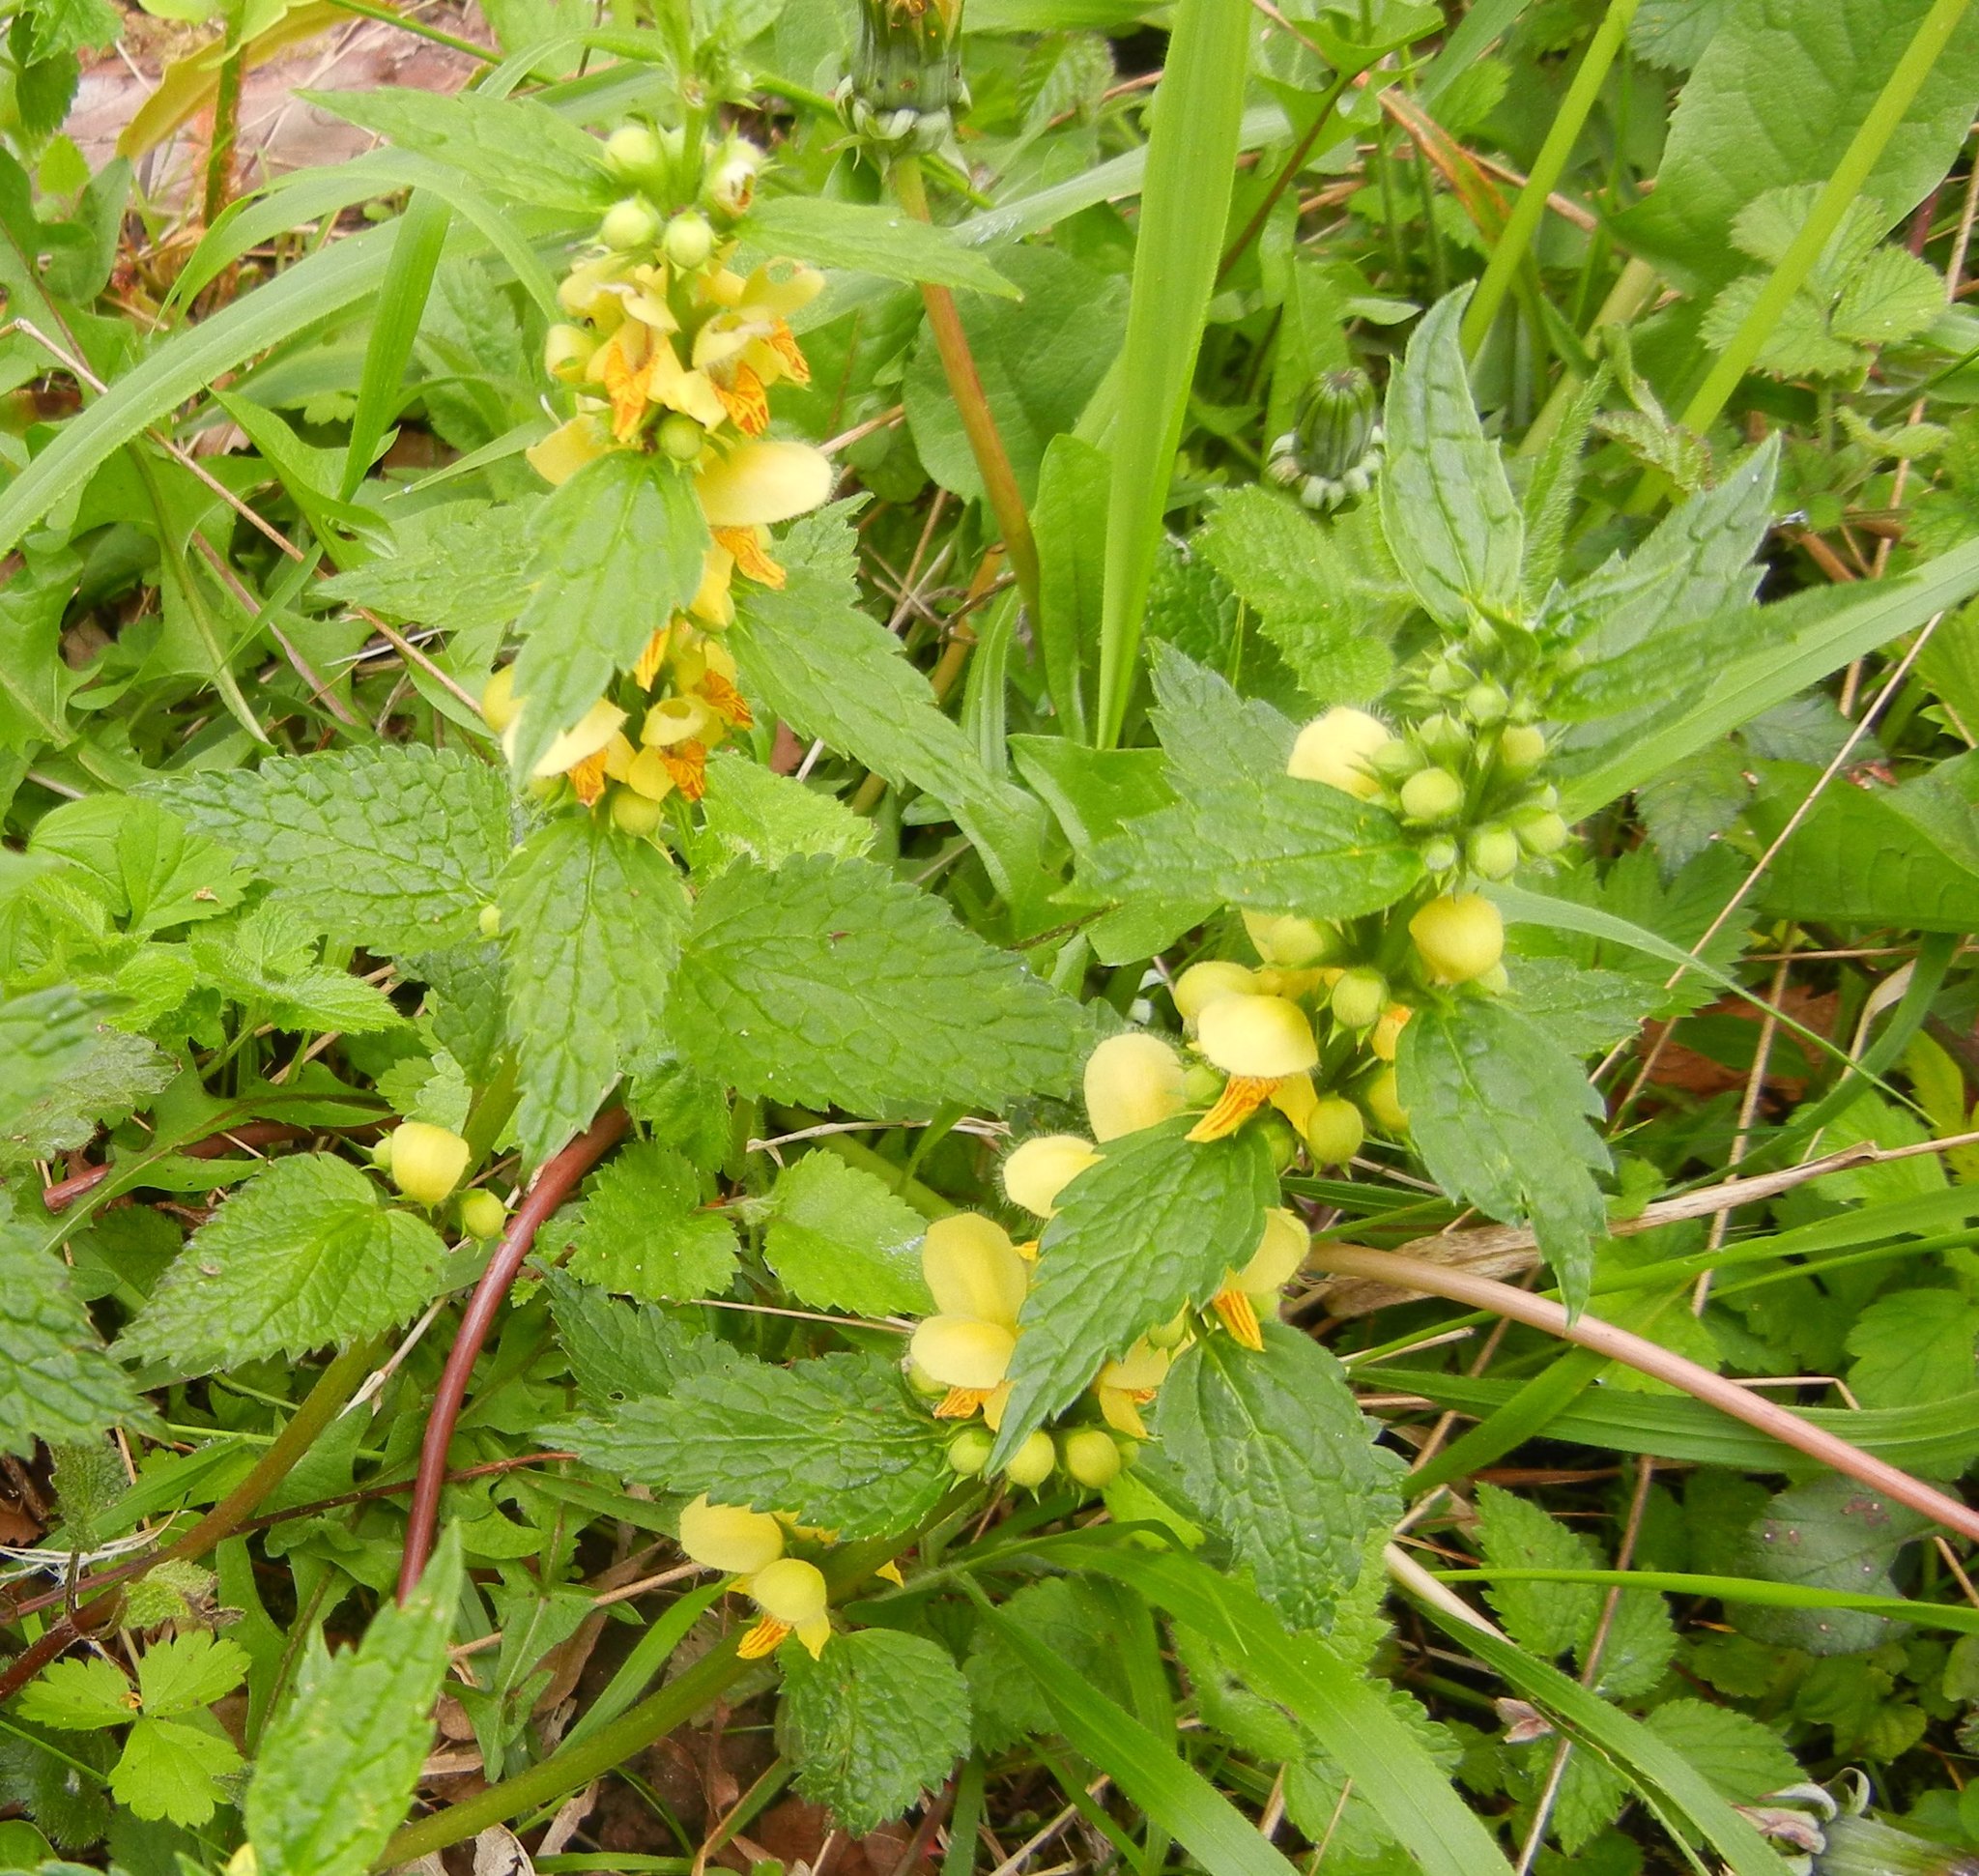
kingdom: Plantae
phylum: Tracheophyta
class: Magnoliopsida
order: Lamiales
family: Lamiaceae
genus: Lamium
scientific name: Lamium galeobdolon
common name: Yellow archangel
